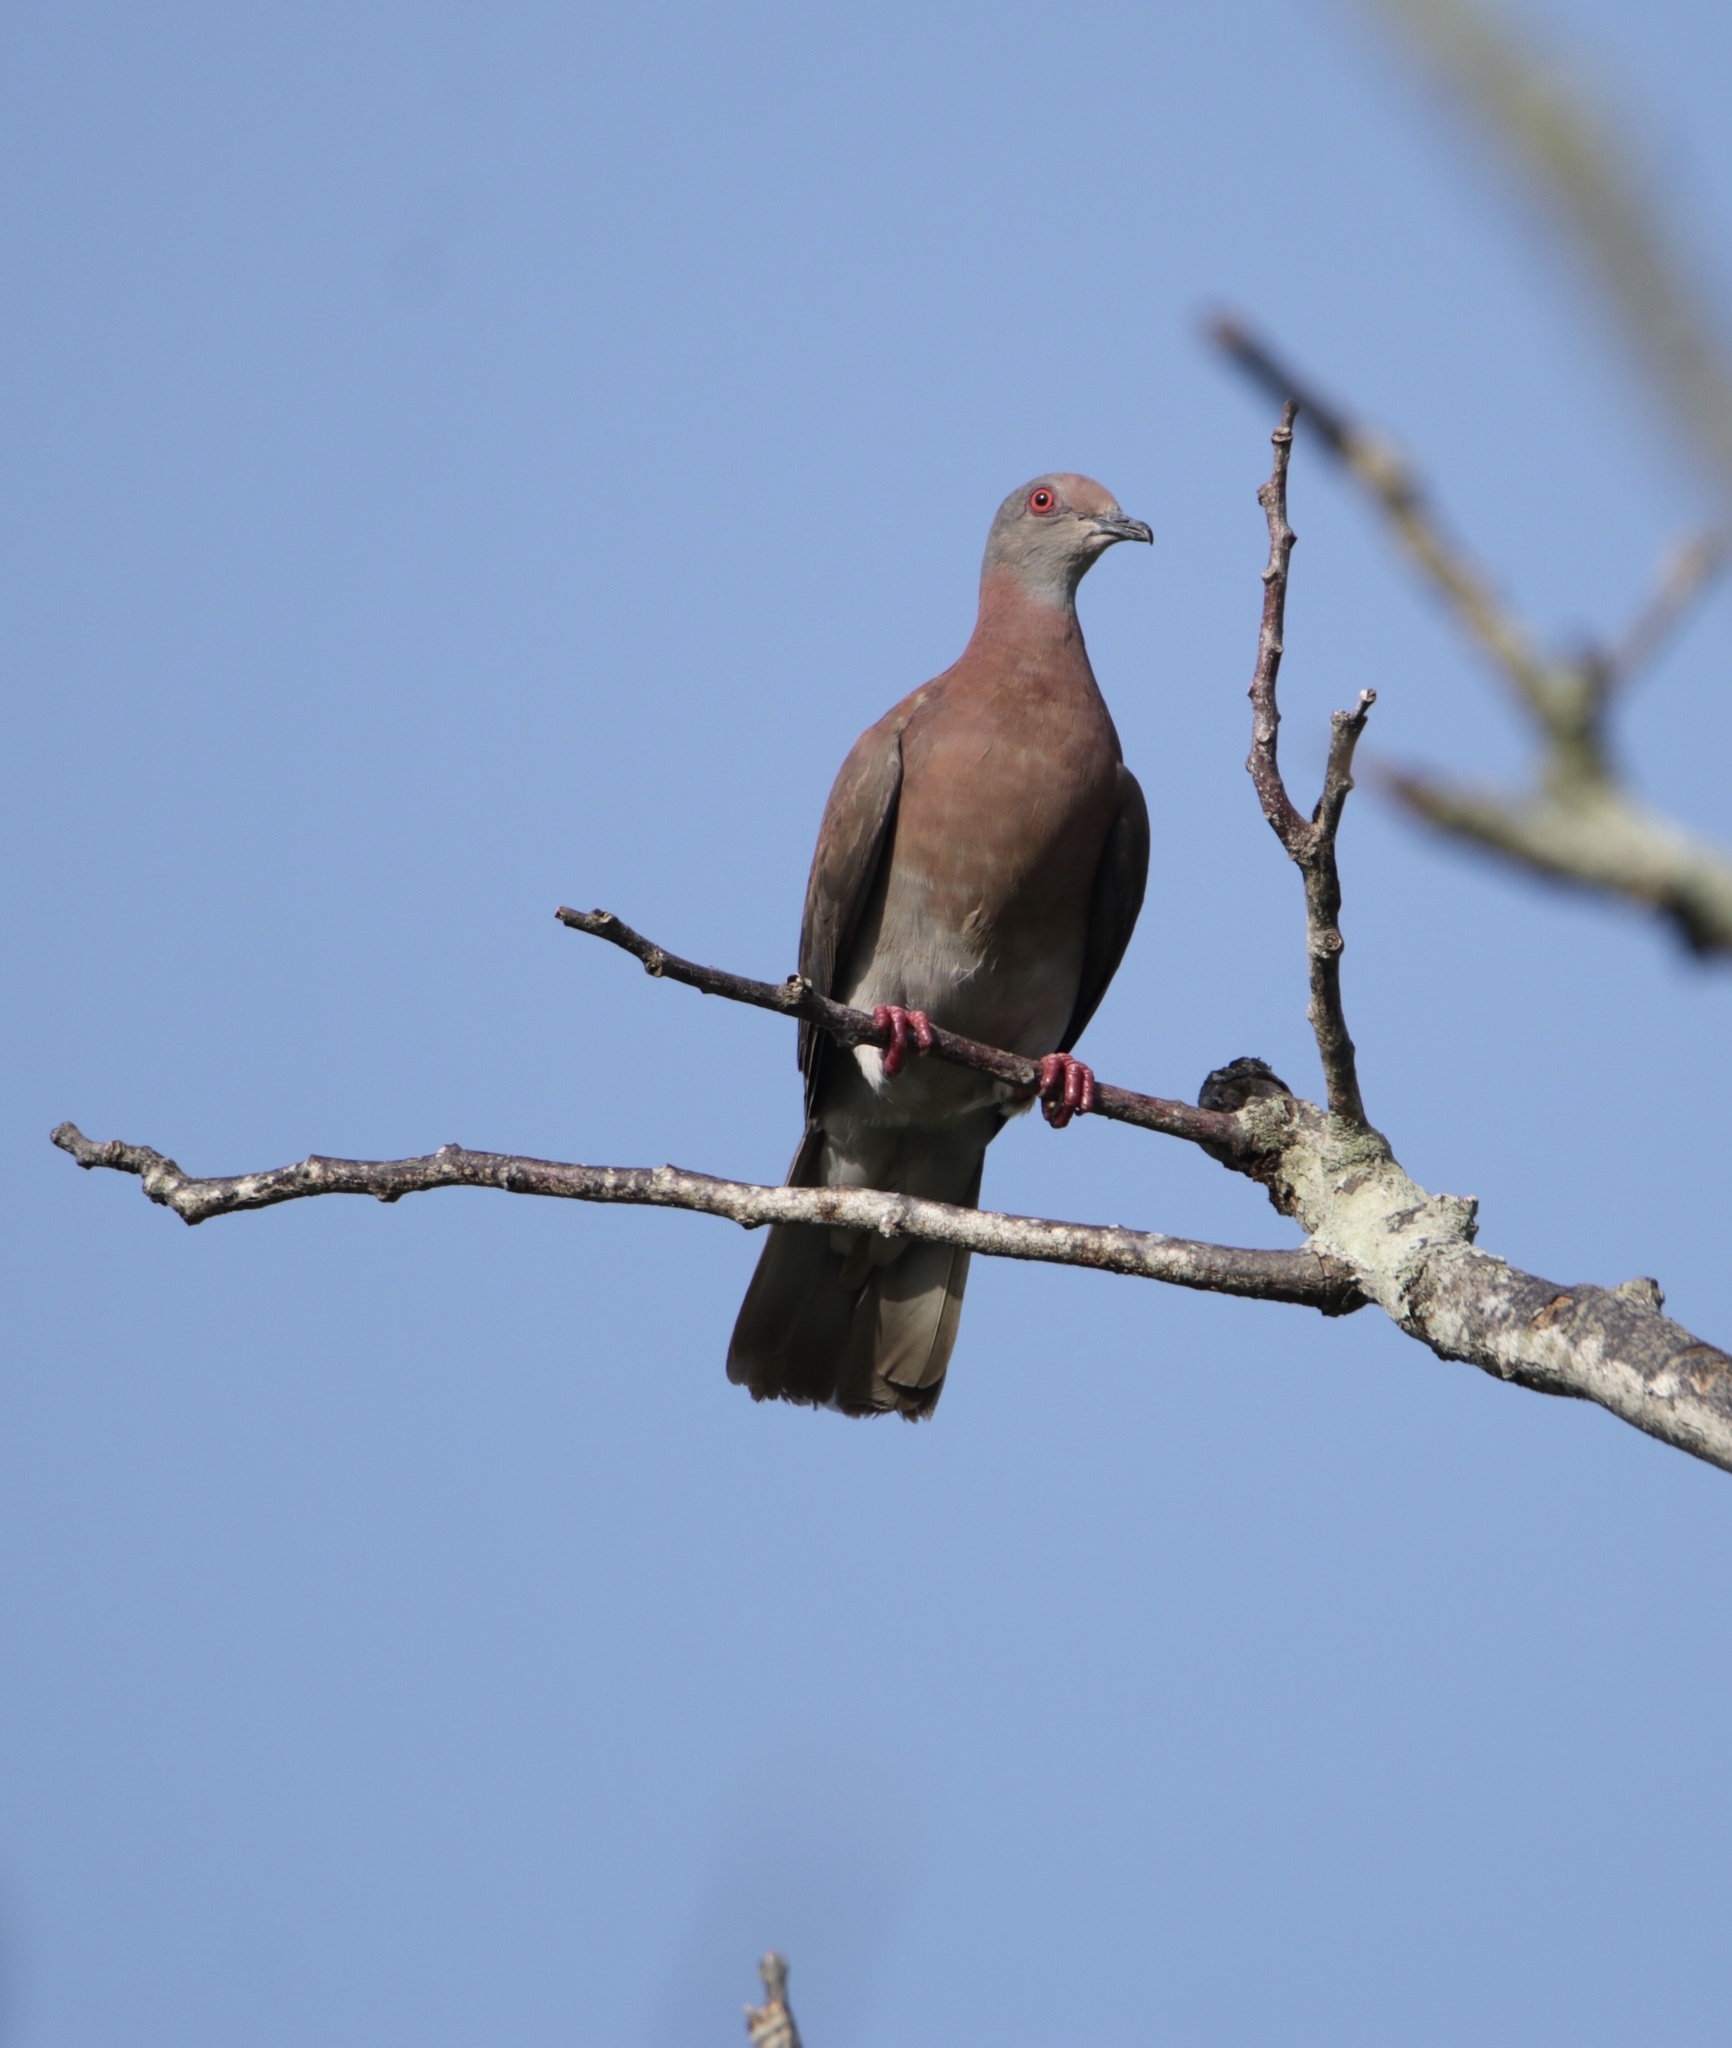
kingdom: Animalia
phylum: Chordata
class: Aves
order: Columbiformes
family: Columbidae
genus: Patagioenas
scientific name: Patagioenas cayennensis
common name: Pale-vented pigeon
